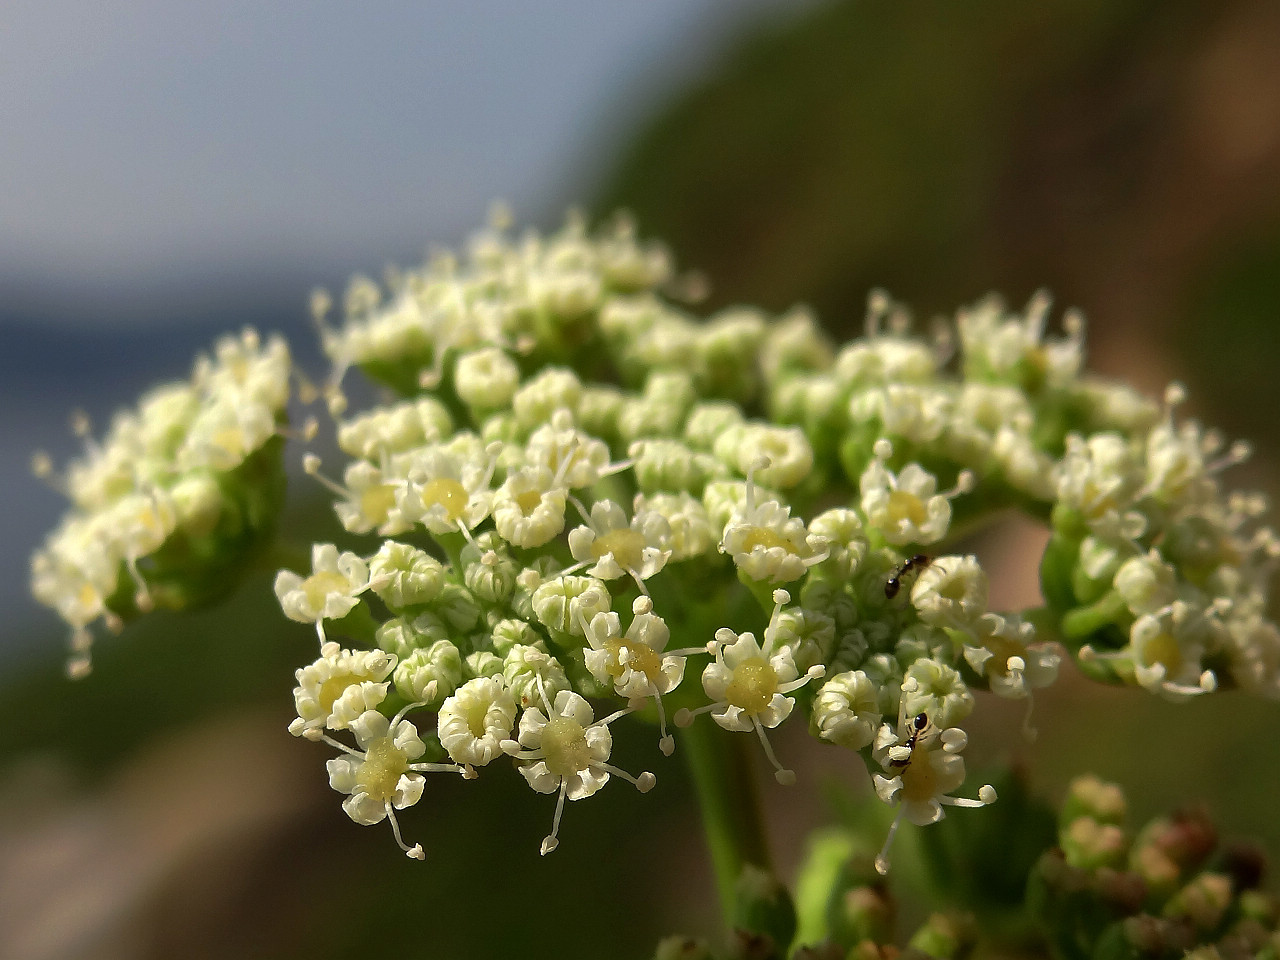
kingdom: Plantae
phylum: Tracheophyta
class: Magnoliopsida
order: Apiales
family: Apiaceae
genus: Peucedanum
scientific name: Peucedanum japonicum
